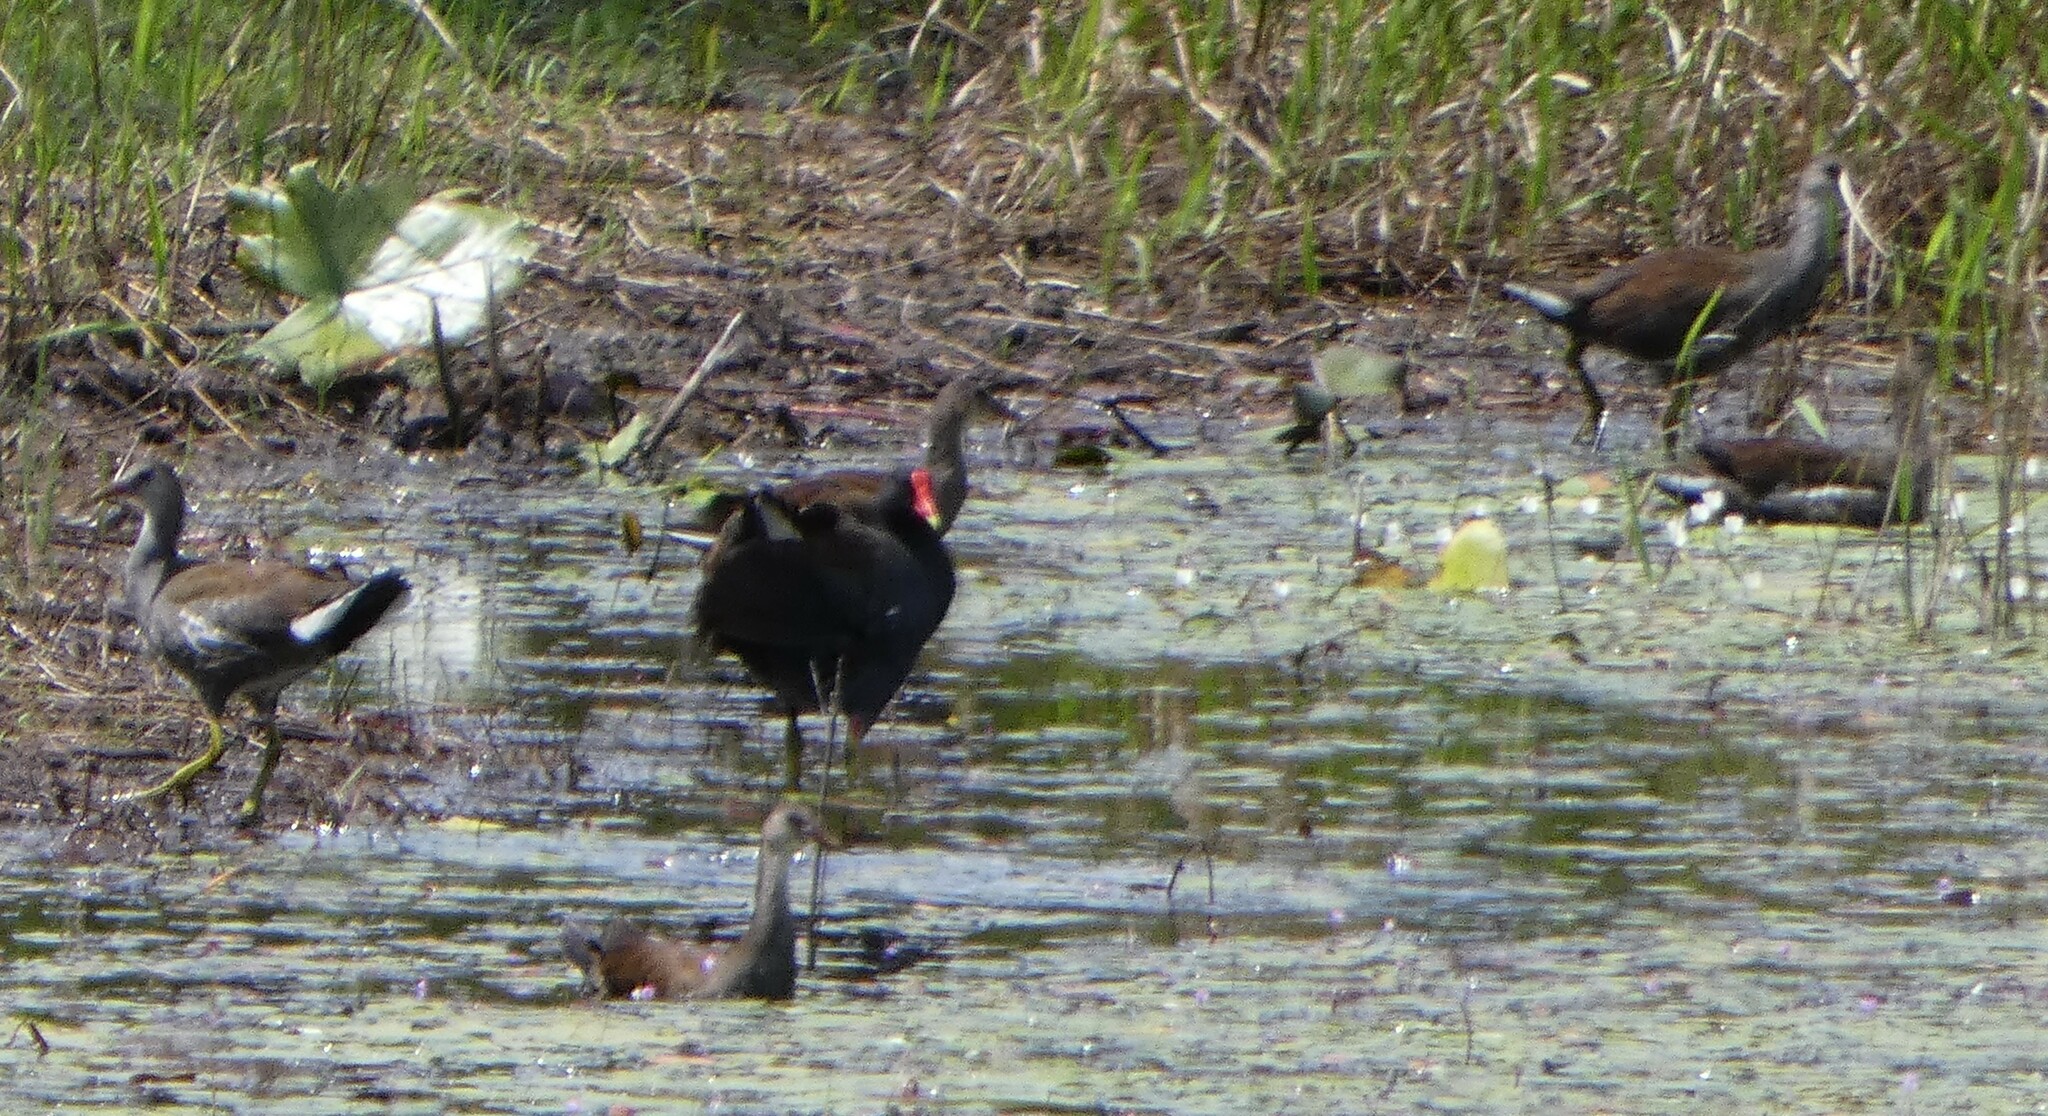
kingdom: Animalia
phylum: Chordata
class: Aves
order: Gruiformes
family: Rallidae
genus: Gallinula
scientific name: Gallinula chloropus
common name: Common moorhen
